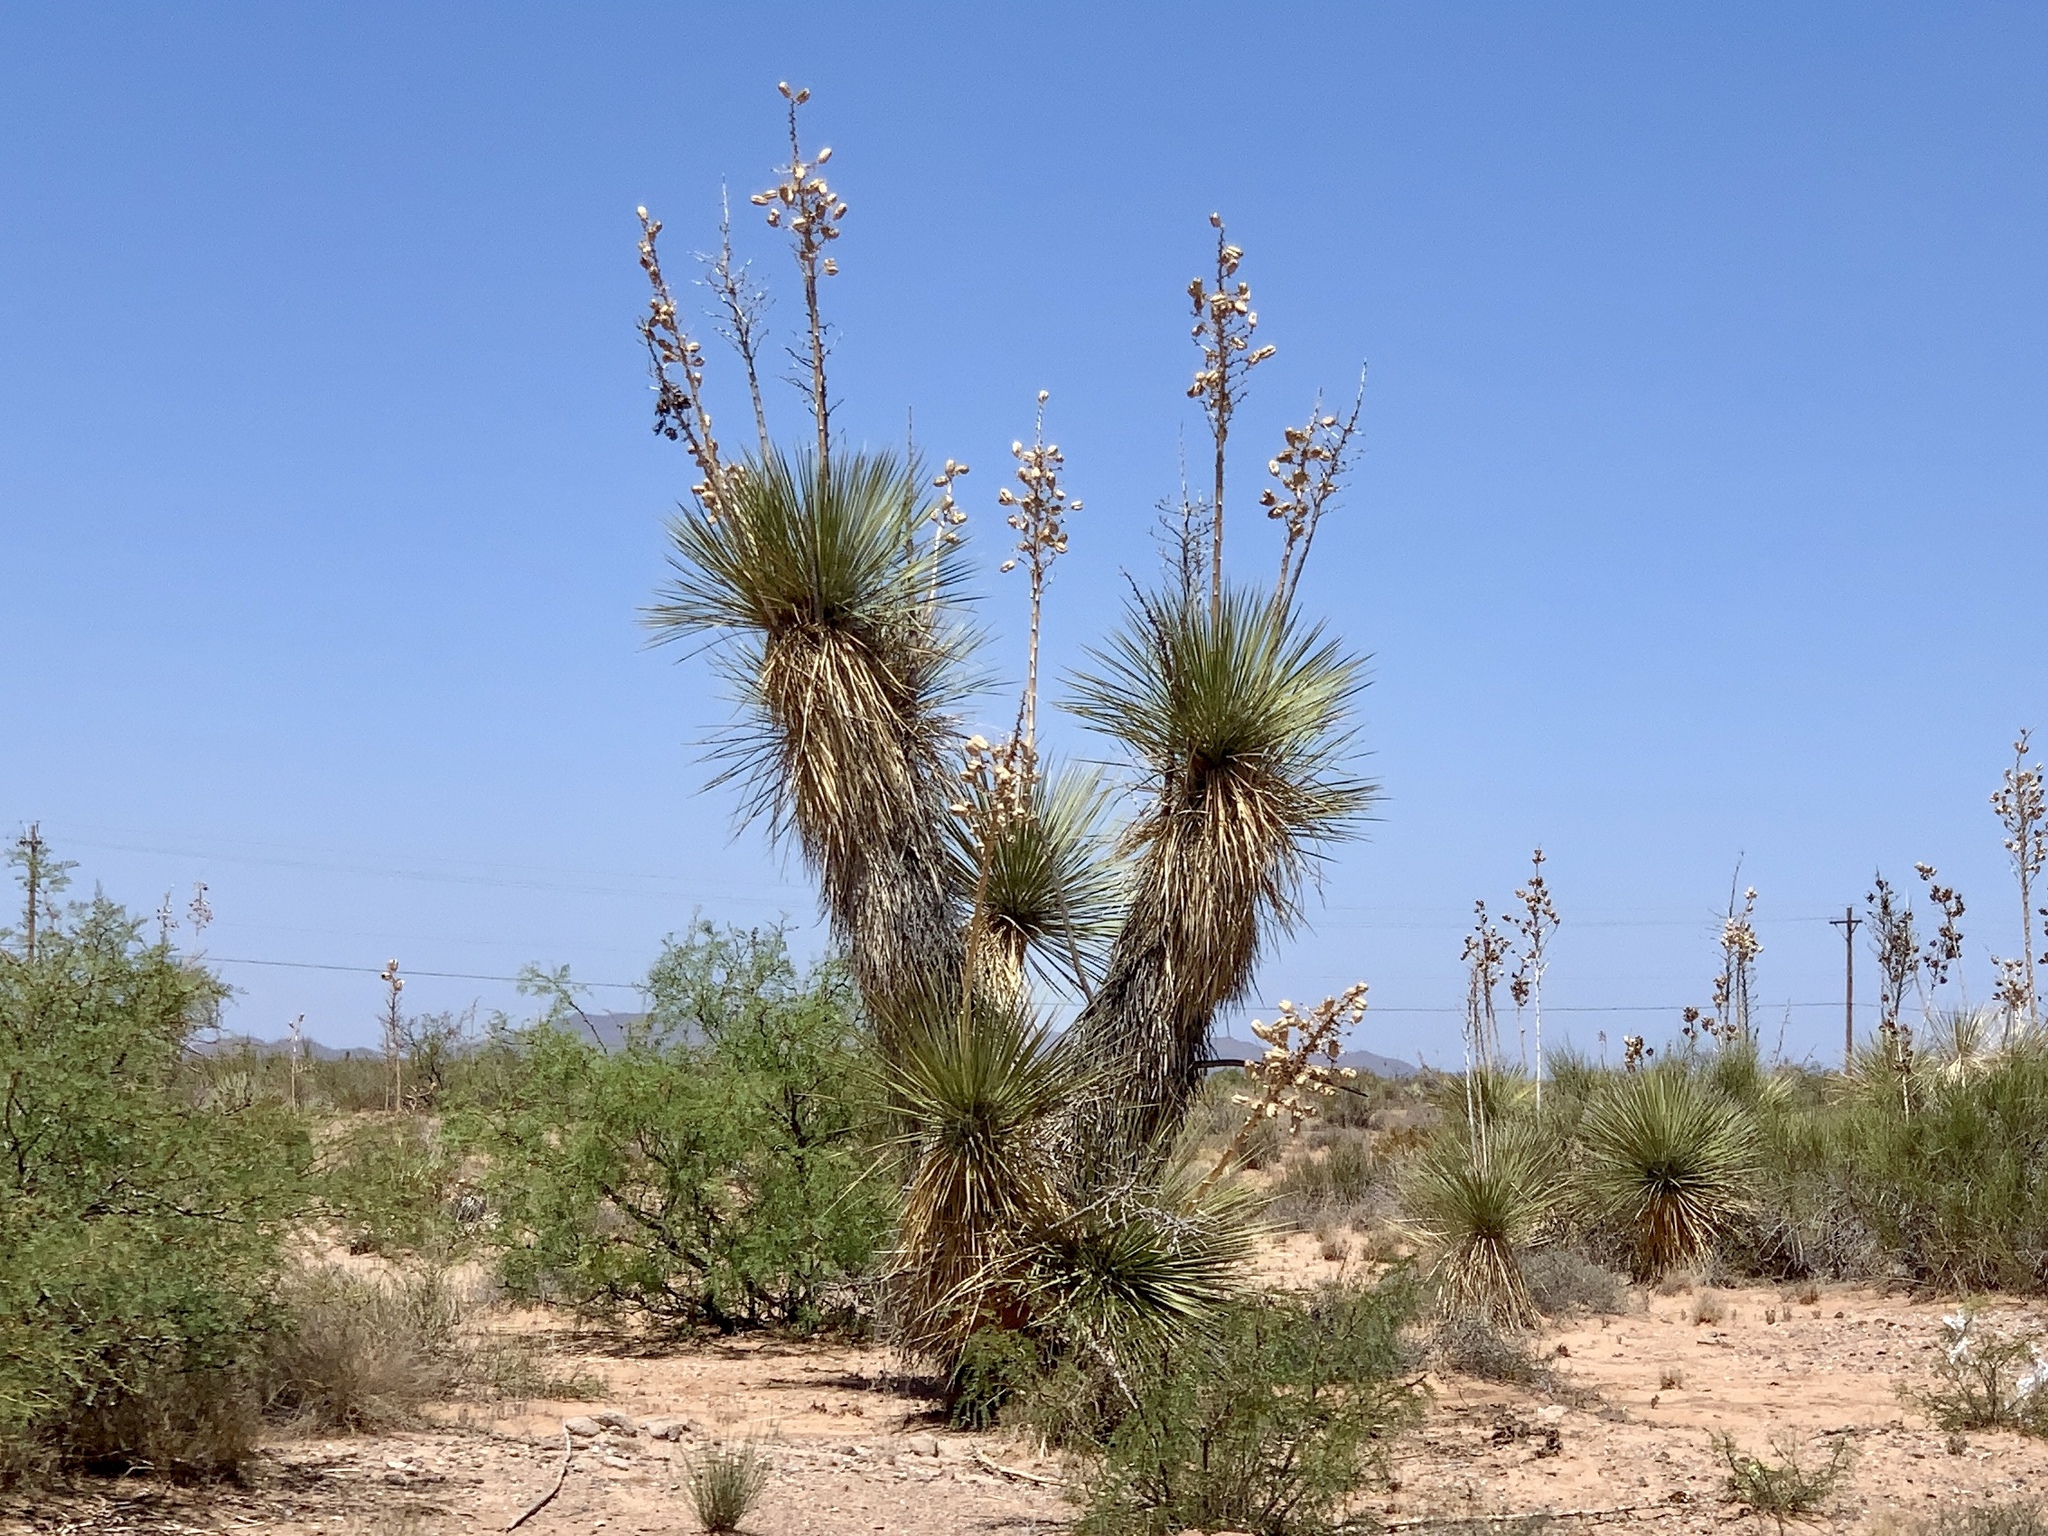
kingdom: Plantae
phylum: Tracheophyta
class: Liliopsida
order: Asparagales
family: Asparagaceae
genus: Yucca
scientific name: Yucca elata
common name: Palmella
